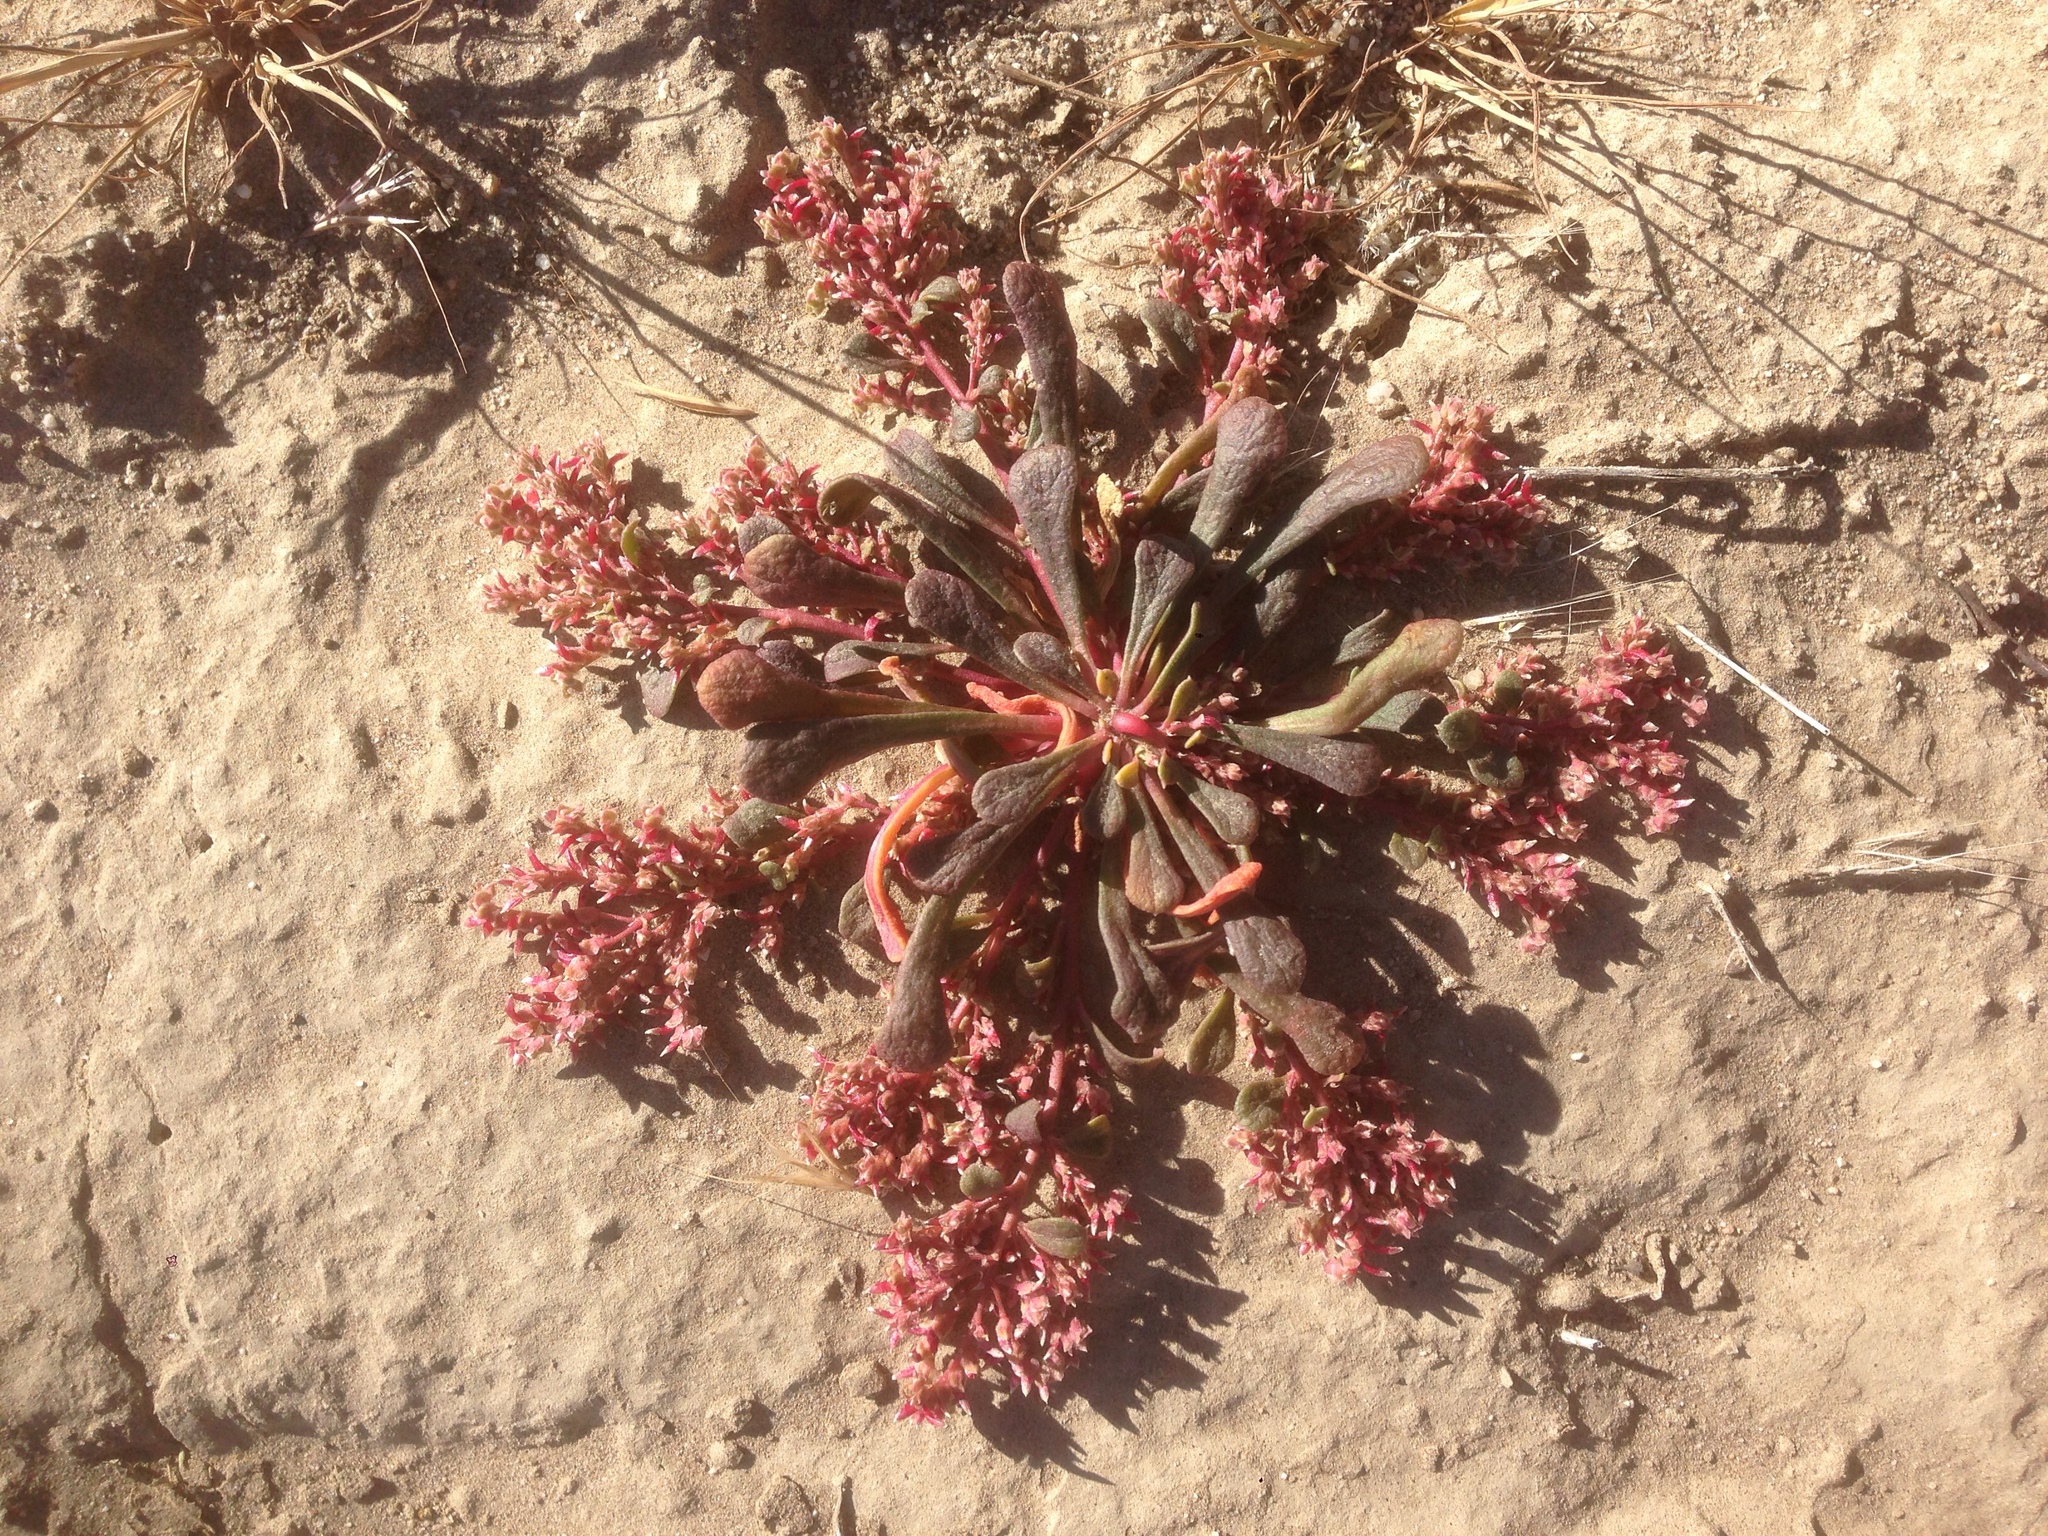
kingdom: Plantae
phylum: Tracheophyta
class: Magnoliopsida
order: Caryophyllales
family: Montiaceae
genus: Calyptridium
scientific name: Calyptridium monandrum
